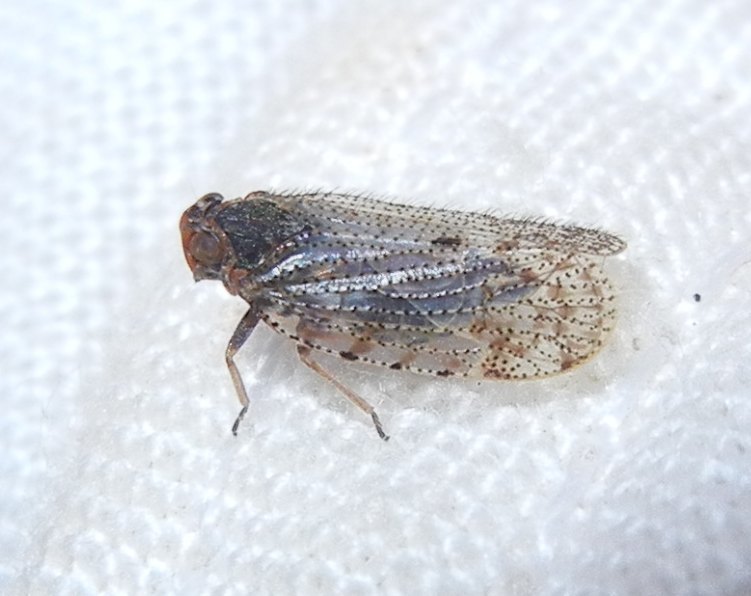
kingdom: Animalia
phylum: Arthropoda
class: Insecta
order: Hemiptera
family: Cixiidae
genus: Tachycixius
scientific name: Tachycixius pilosus
